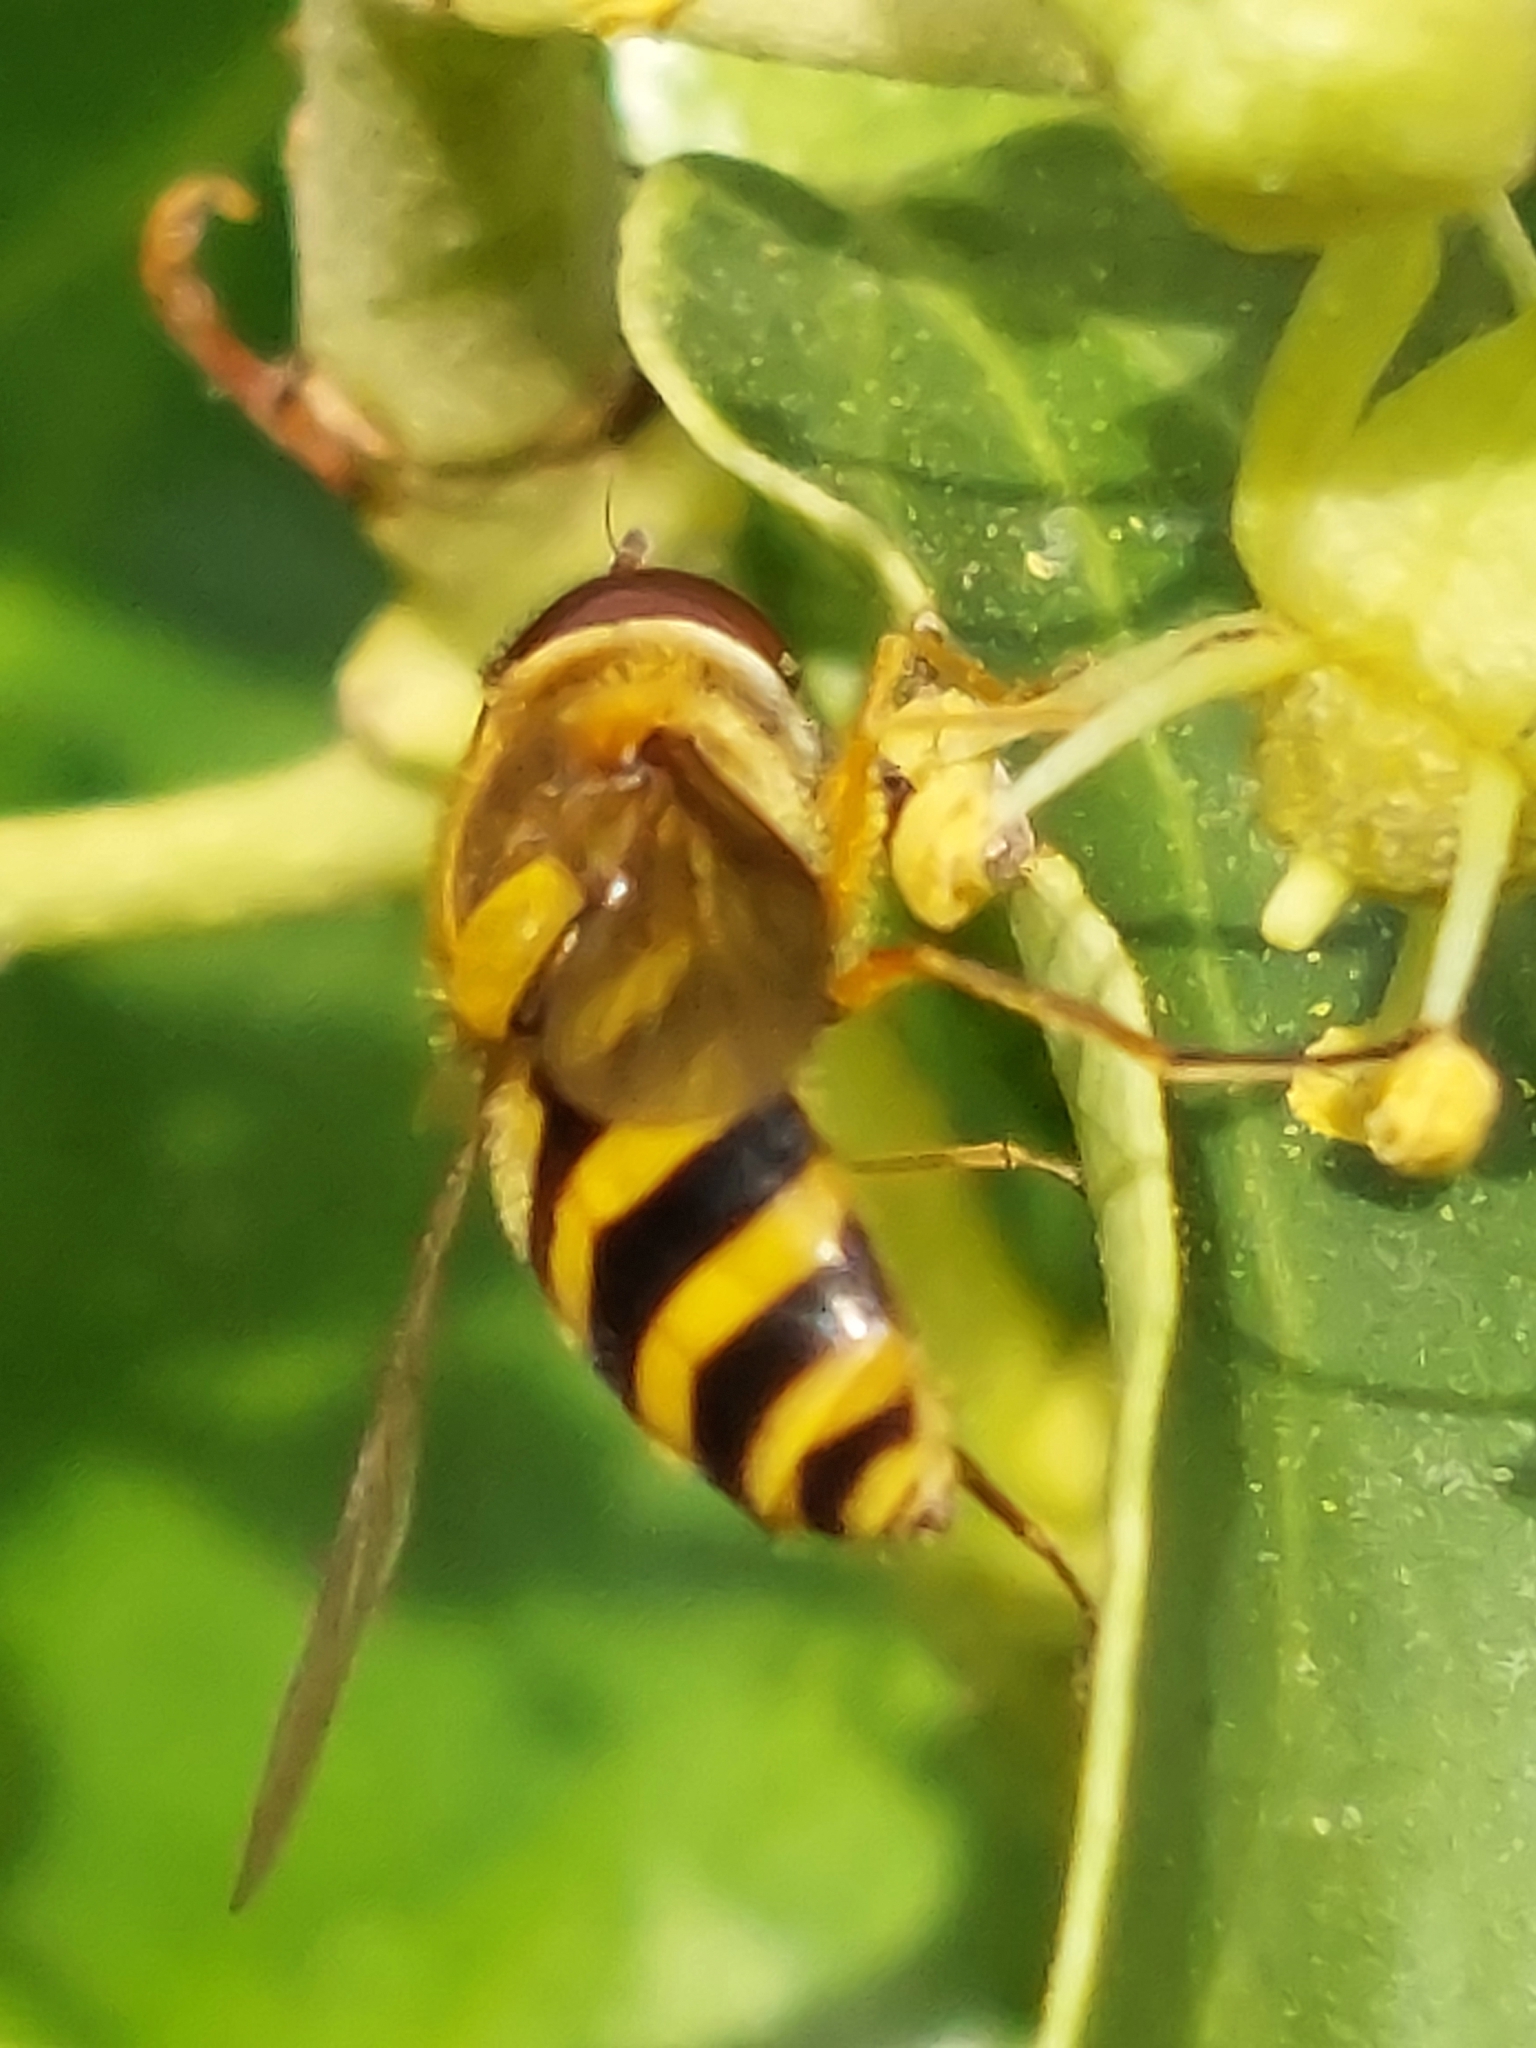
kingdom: Animalia
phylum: Arthropoda
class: Insecta
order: Diptera
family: Syrphidae
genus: Syrphus
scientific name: Syrphus ribesii
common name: Common flower fly
